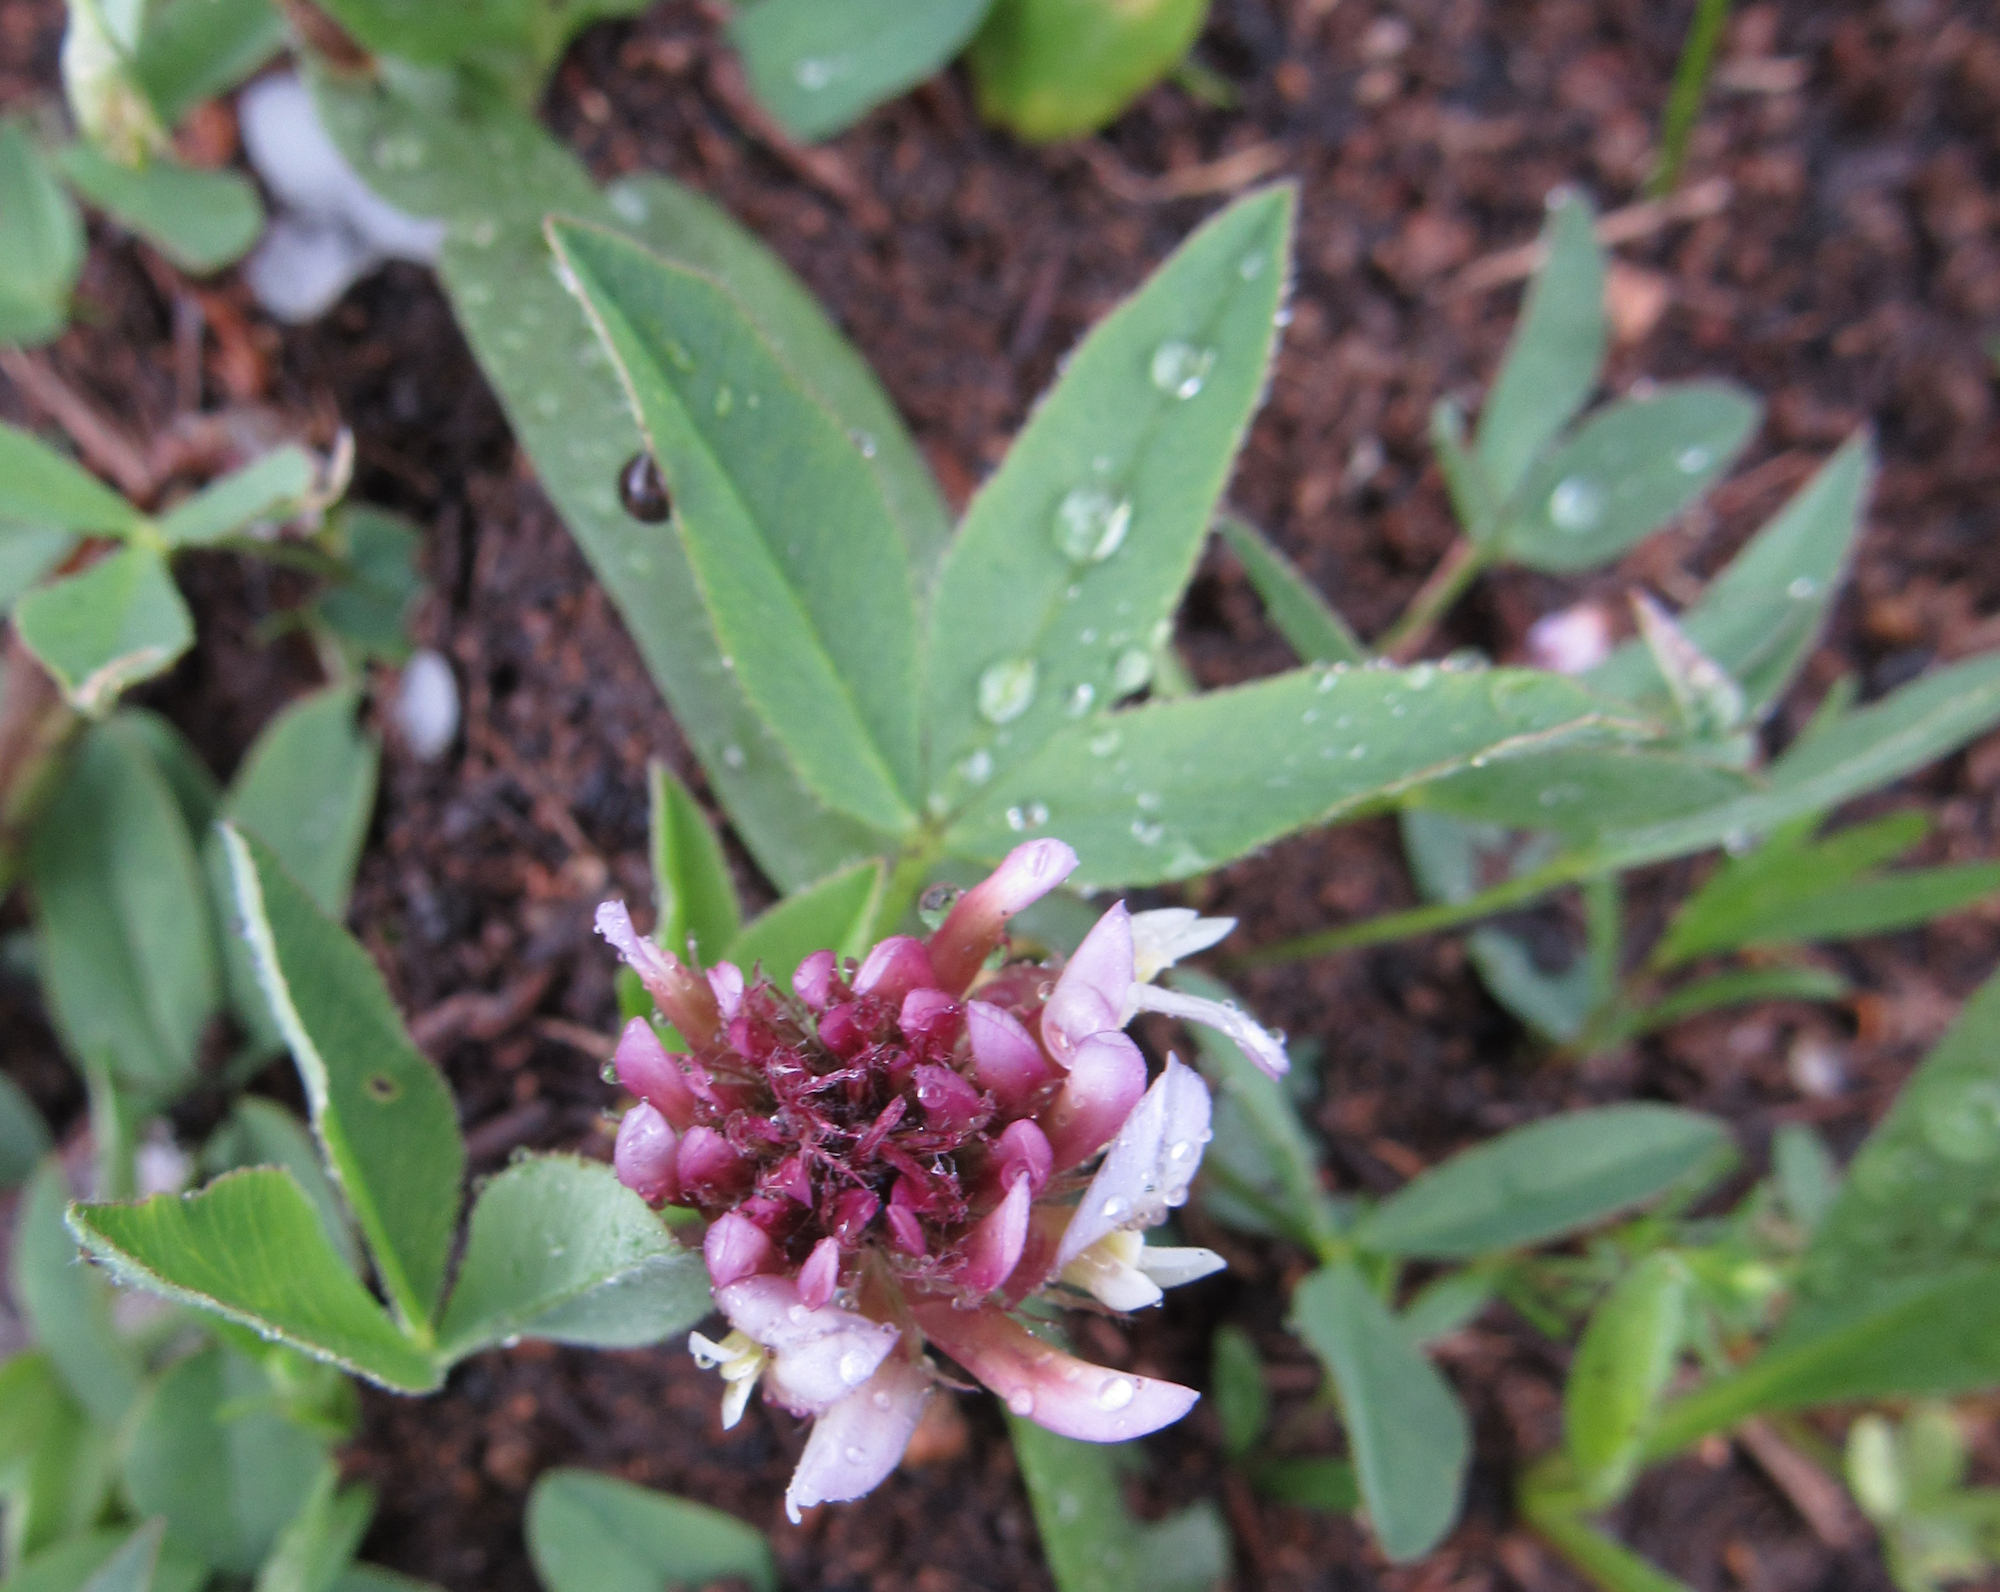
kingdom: Plantae
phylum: Tracheophyta
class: Magnoliopsida
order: Fabales
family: Fabaceae
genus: Trifolium
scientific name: Trifolium longipes
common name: Long-stalk clover
